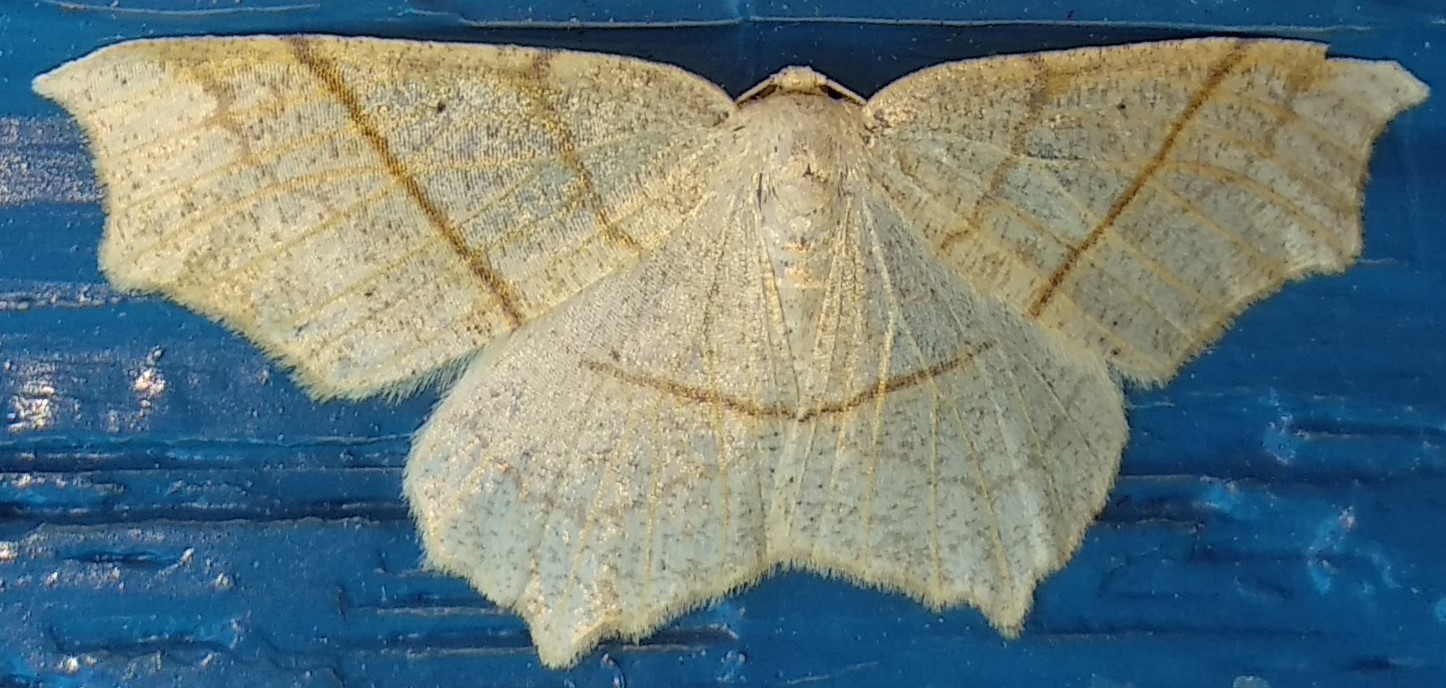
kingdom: Animalia
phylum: Arthropoda
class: Insecta
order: Lepidoptera
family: Geometridae
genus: Besma
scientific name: Besma quercivoraria
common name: Oak besma
